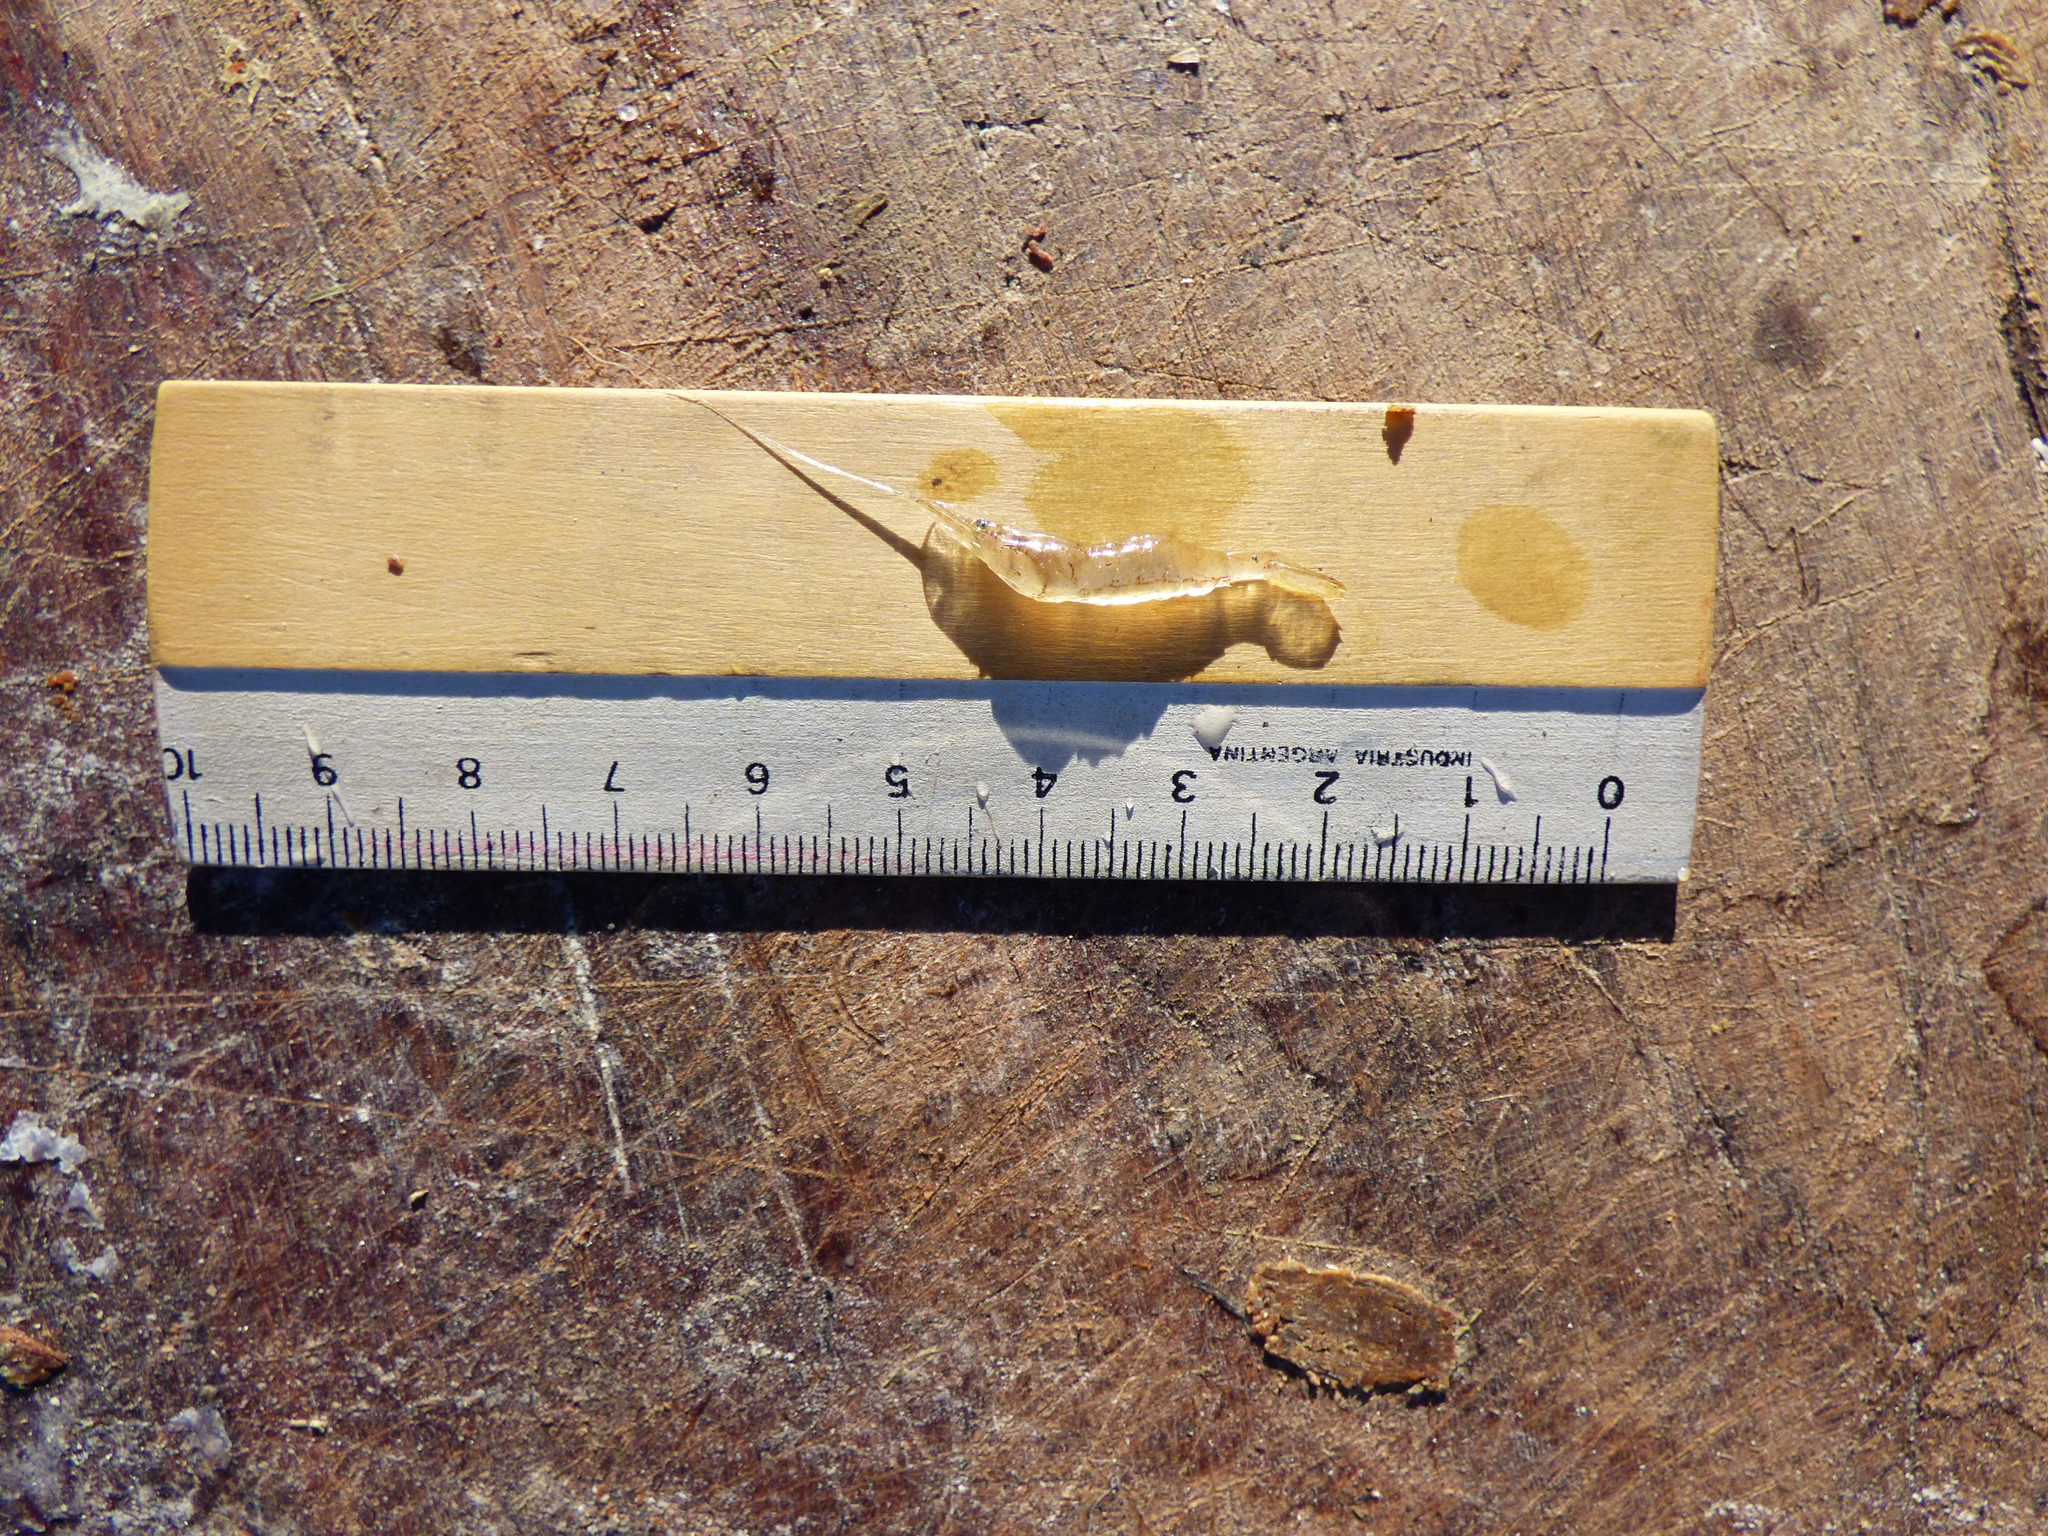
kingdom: Animalia
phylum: Arthropoda
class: Malacostraca
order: Decapoda
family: Palaemonidae
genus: Palaemon
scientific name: Palaemon argentinus
